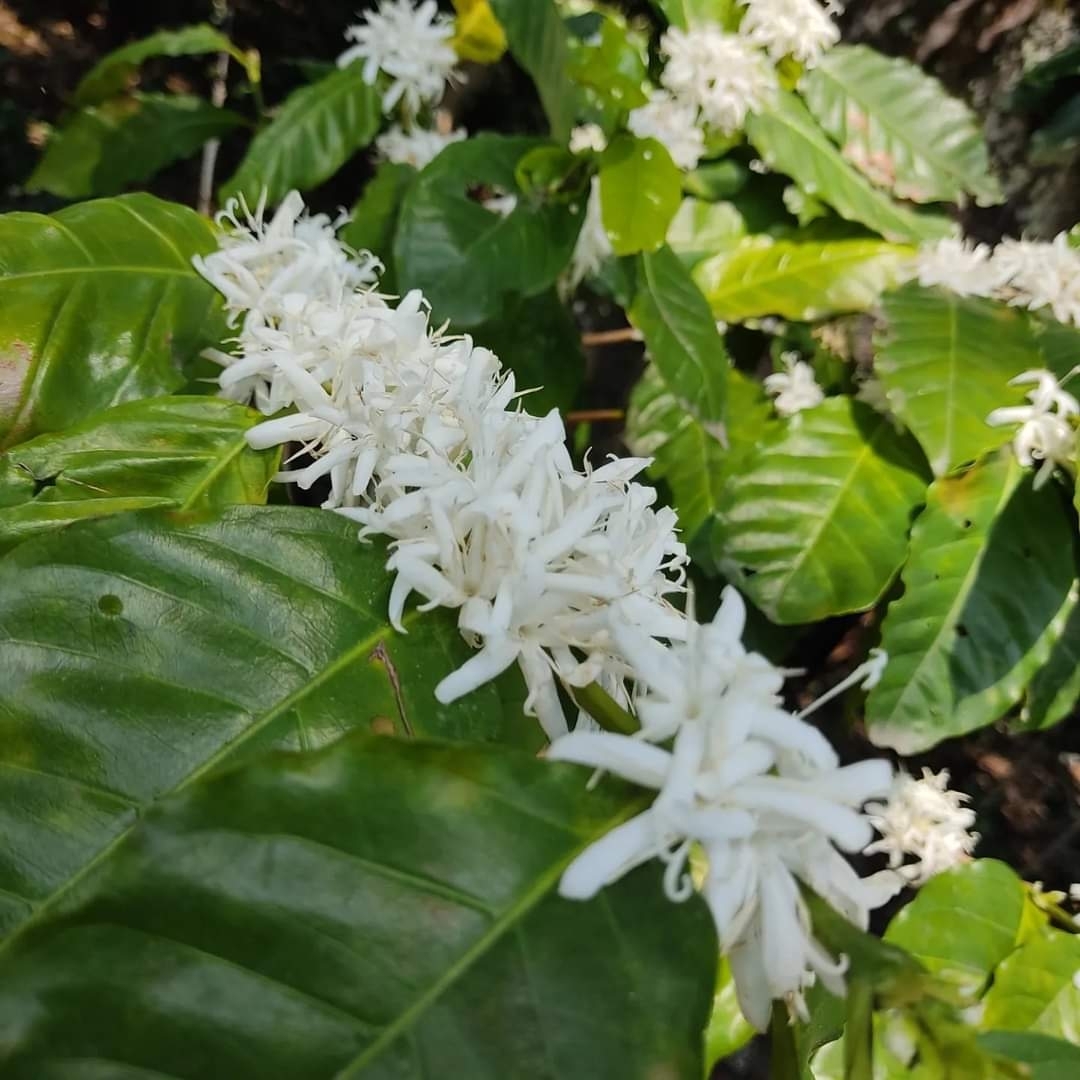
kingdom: Plantae
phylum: Tracheophyta
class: Magnoliopsida
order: Gentianales
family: Rubiaceae
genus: Coffea
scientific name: Coffea arabica
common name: Coffee
